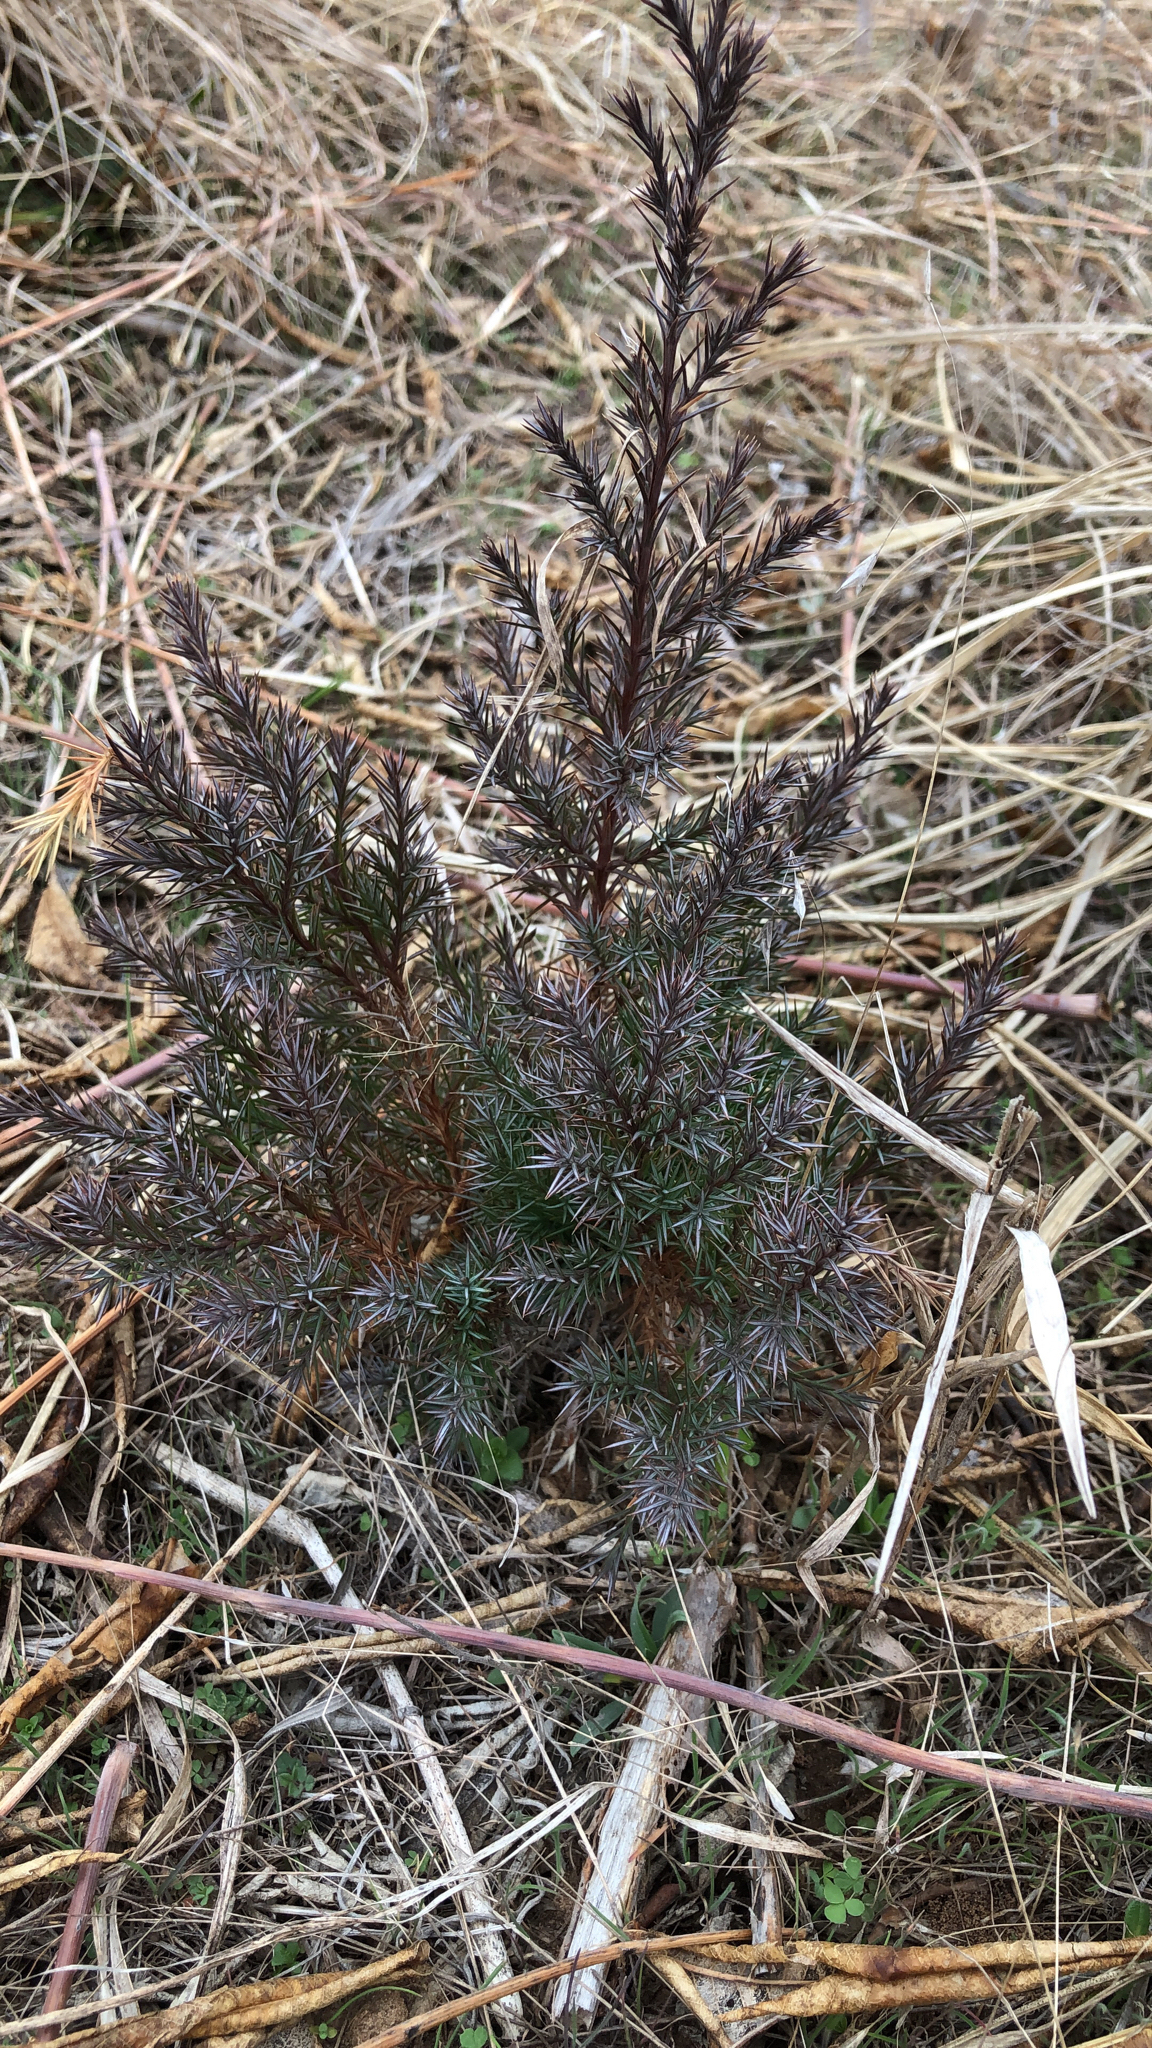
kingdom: Plantae
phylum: Tracheophyta
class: Pinopsida
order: Pinales
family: Cupressaceae
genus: Juniperus
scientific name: Juniperus virginiana
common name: Red juniper
